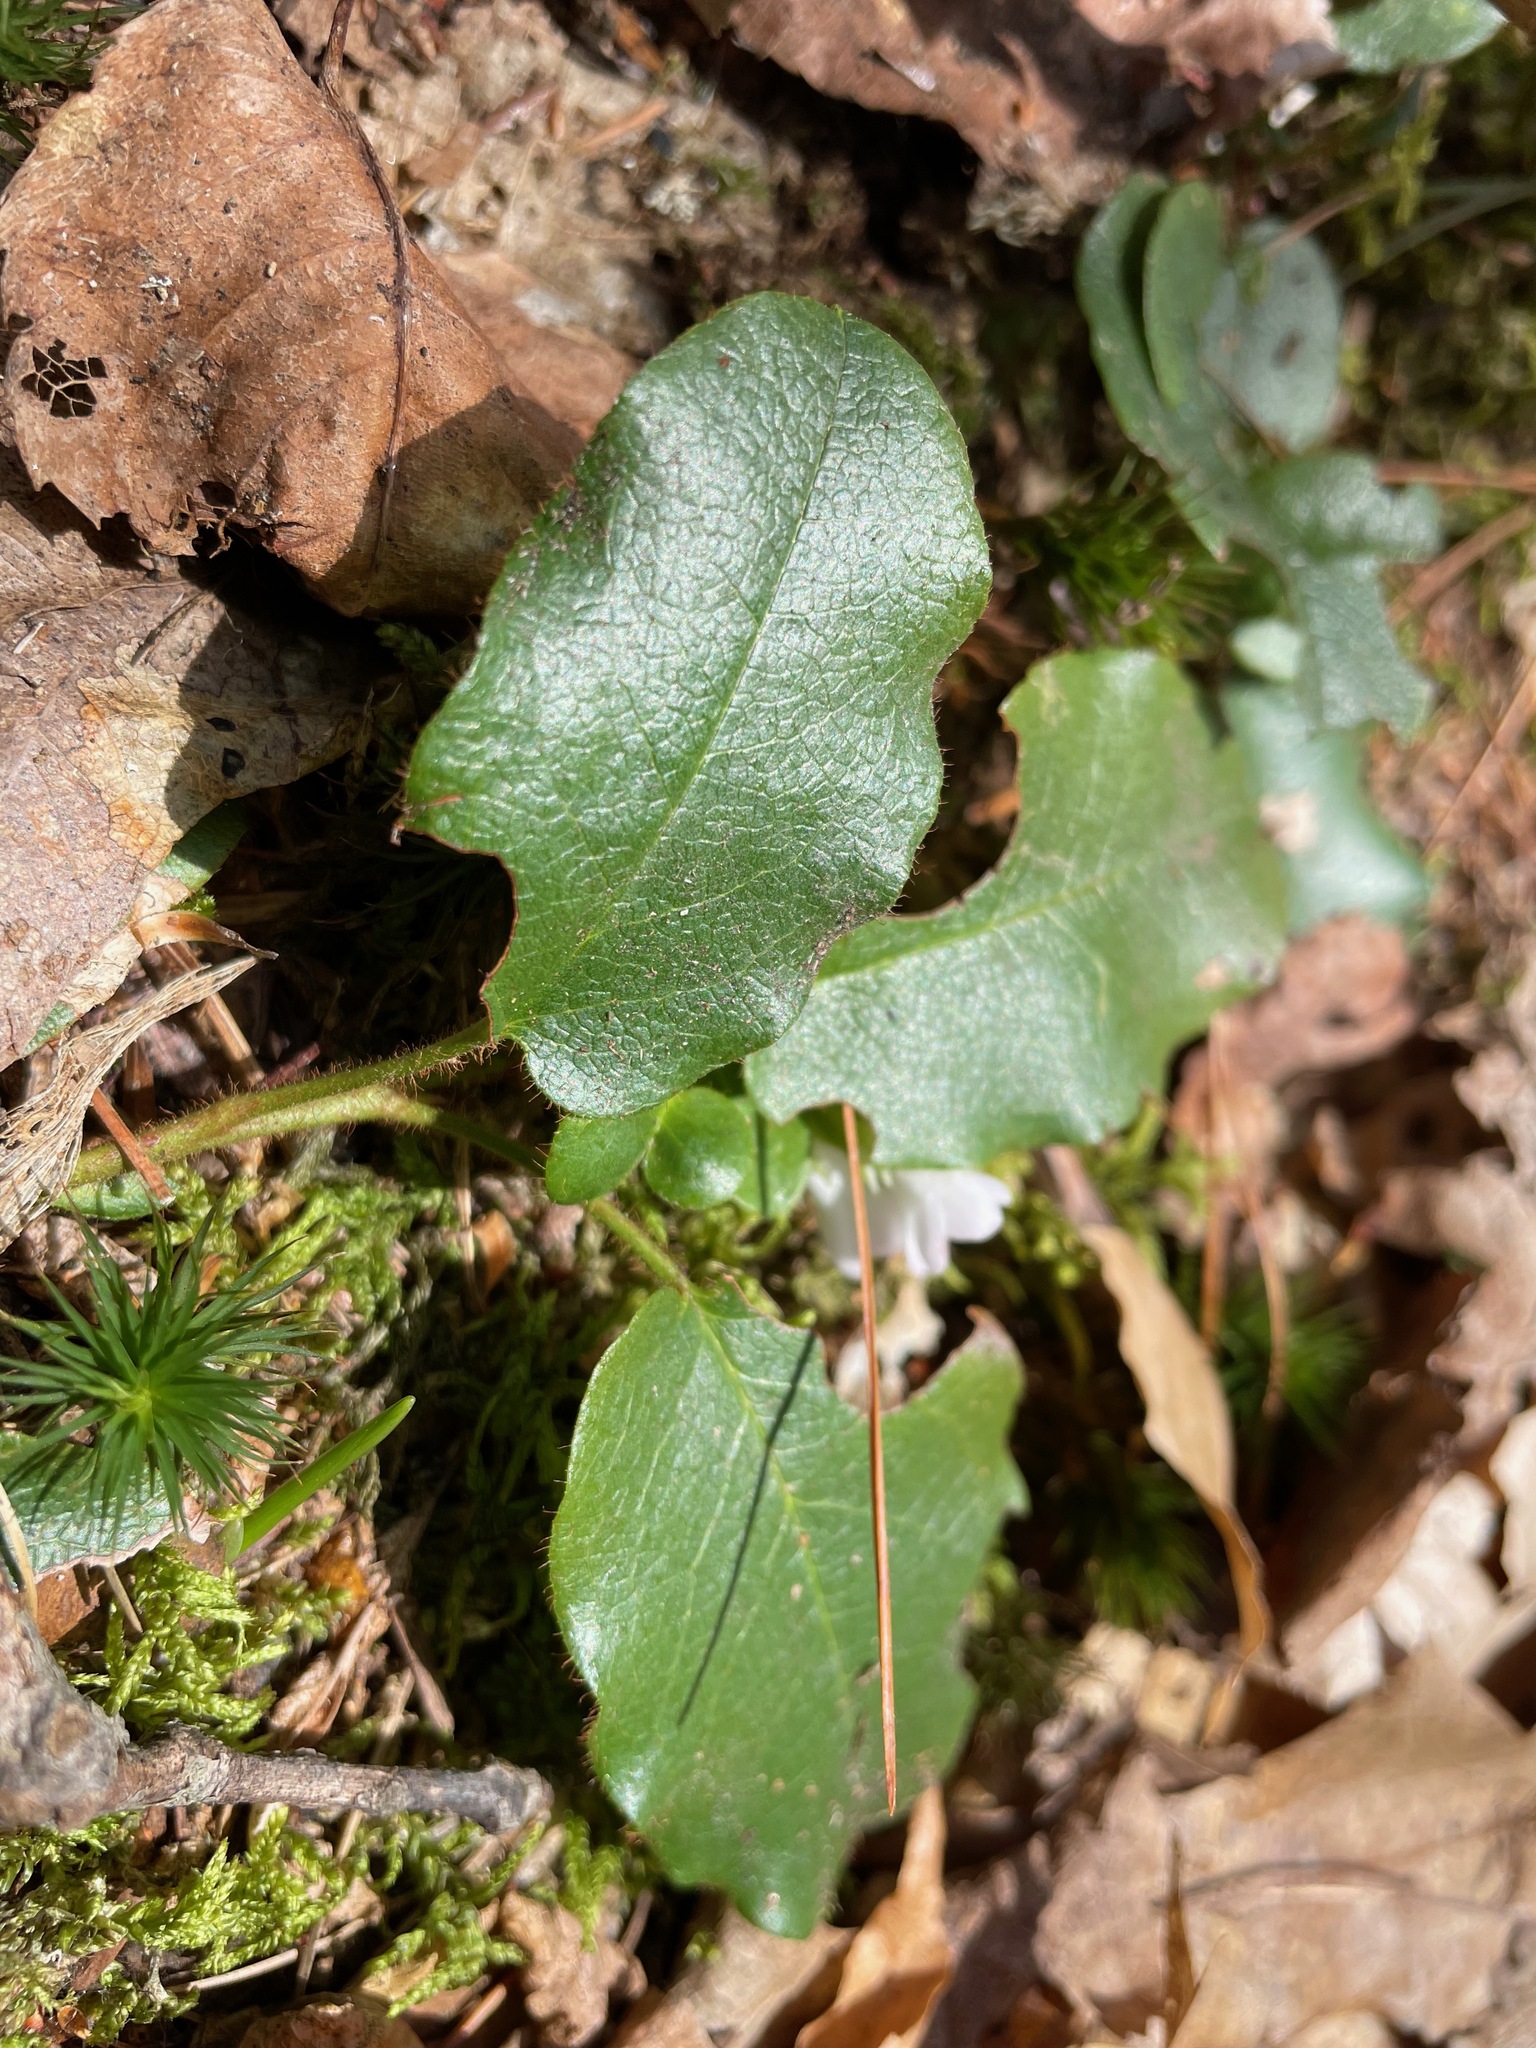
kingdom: Plantae
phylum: Tracheophyta
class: Magnoliopsida
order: Ericales
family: Ericaceae
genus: Epigaea
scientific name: Epigaea repens
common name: Gravelroot
